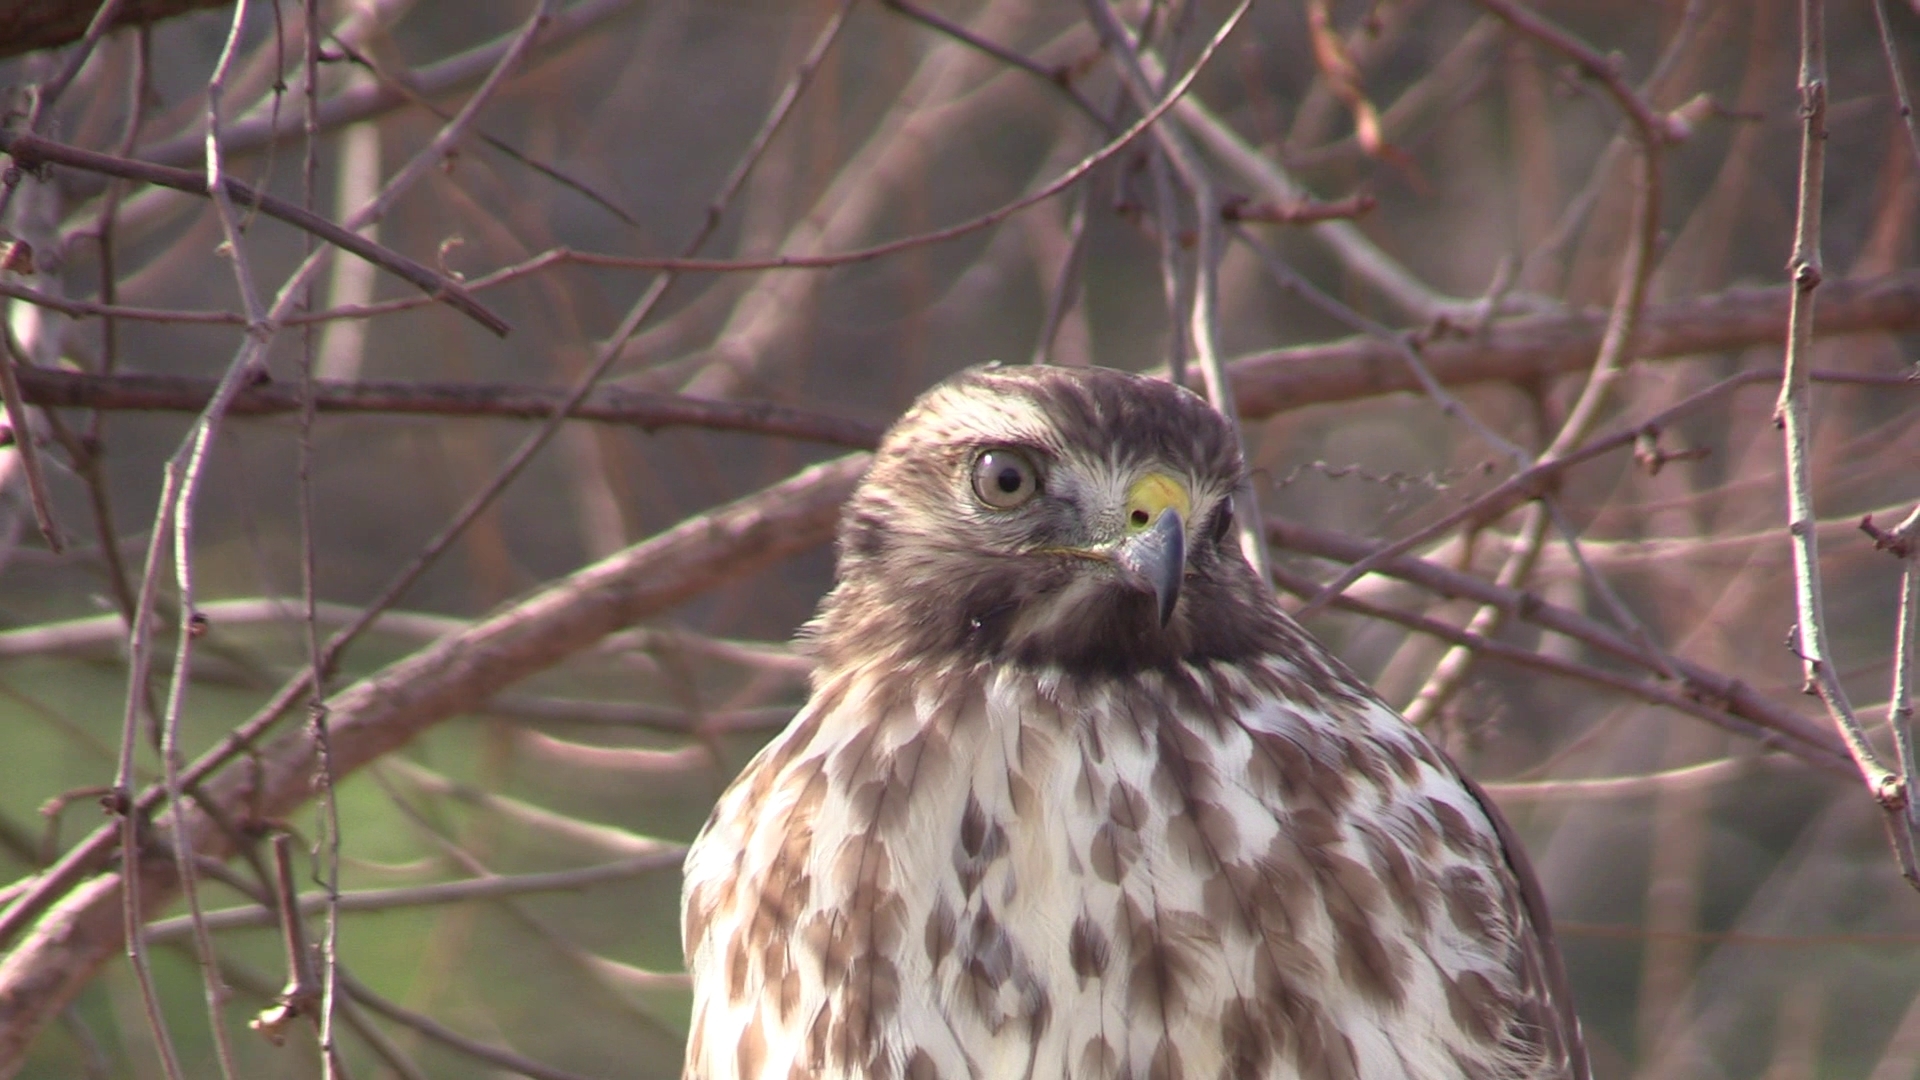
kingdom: Animalia
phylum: Chordata
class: Aves
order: Accipitriformes
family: Accipitridae
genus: Buteo
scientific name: Buteo lineatus
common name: Red-shouldered hawk
